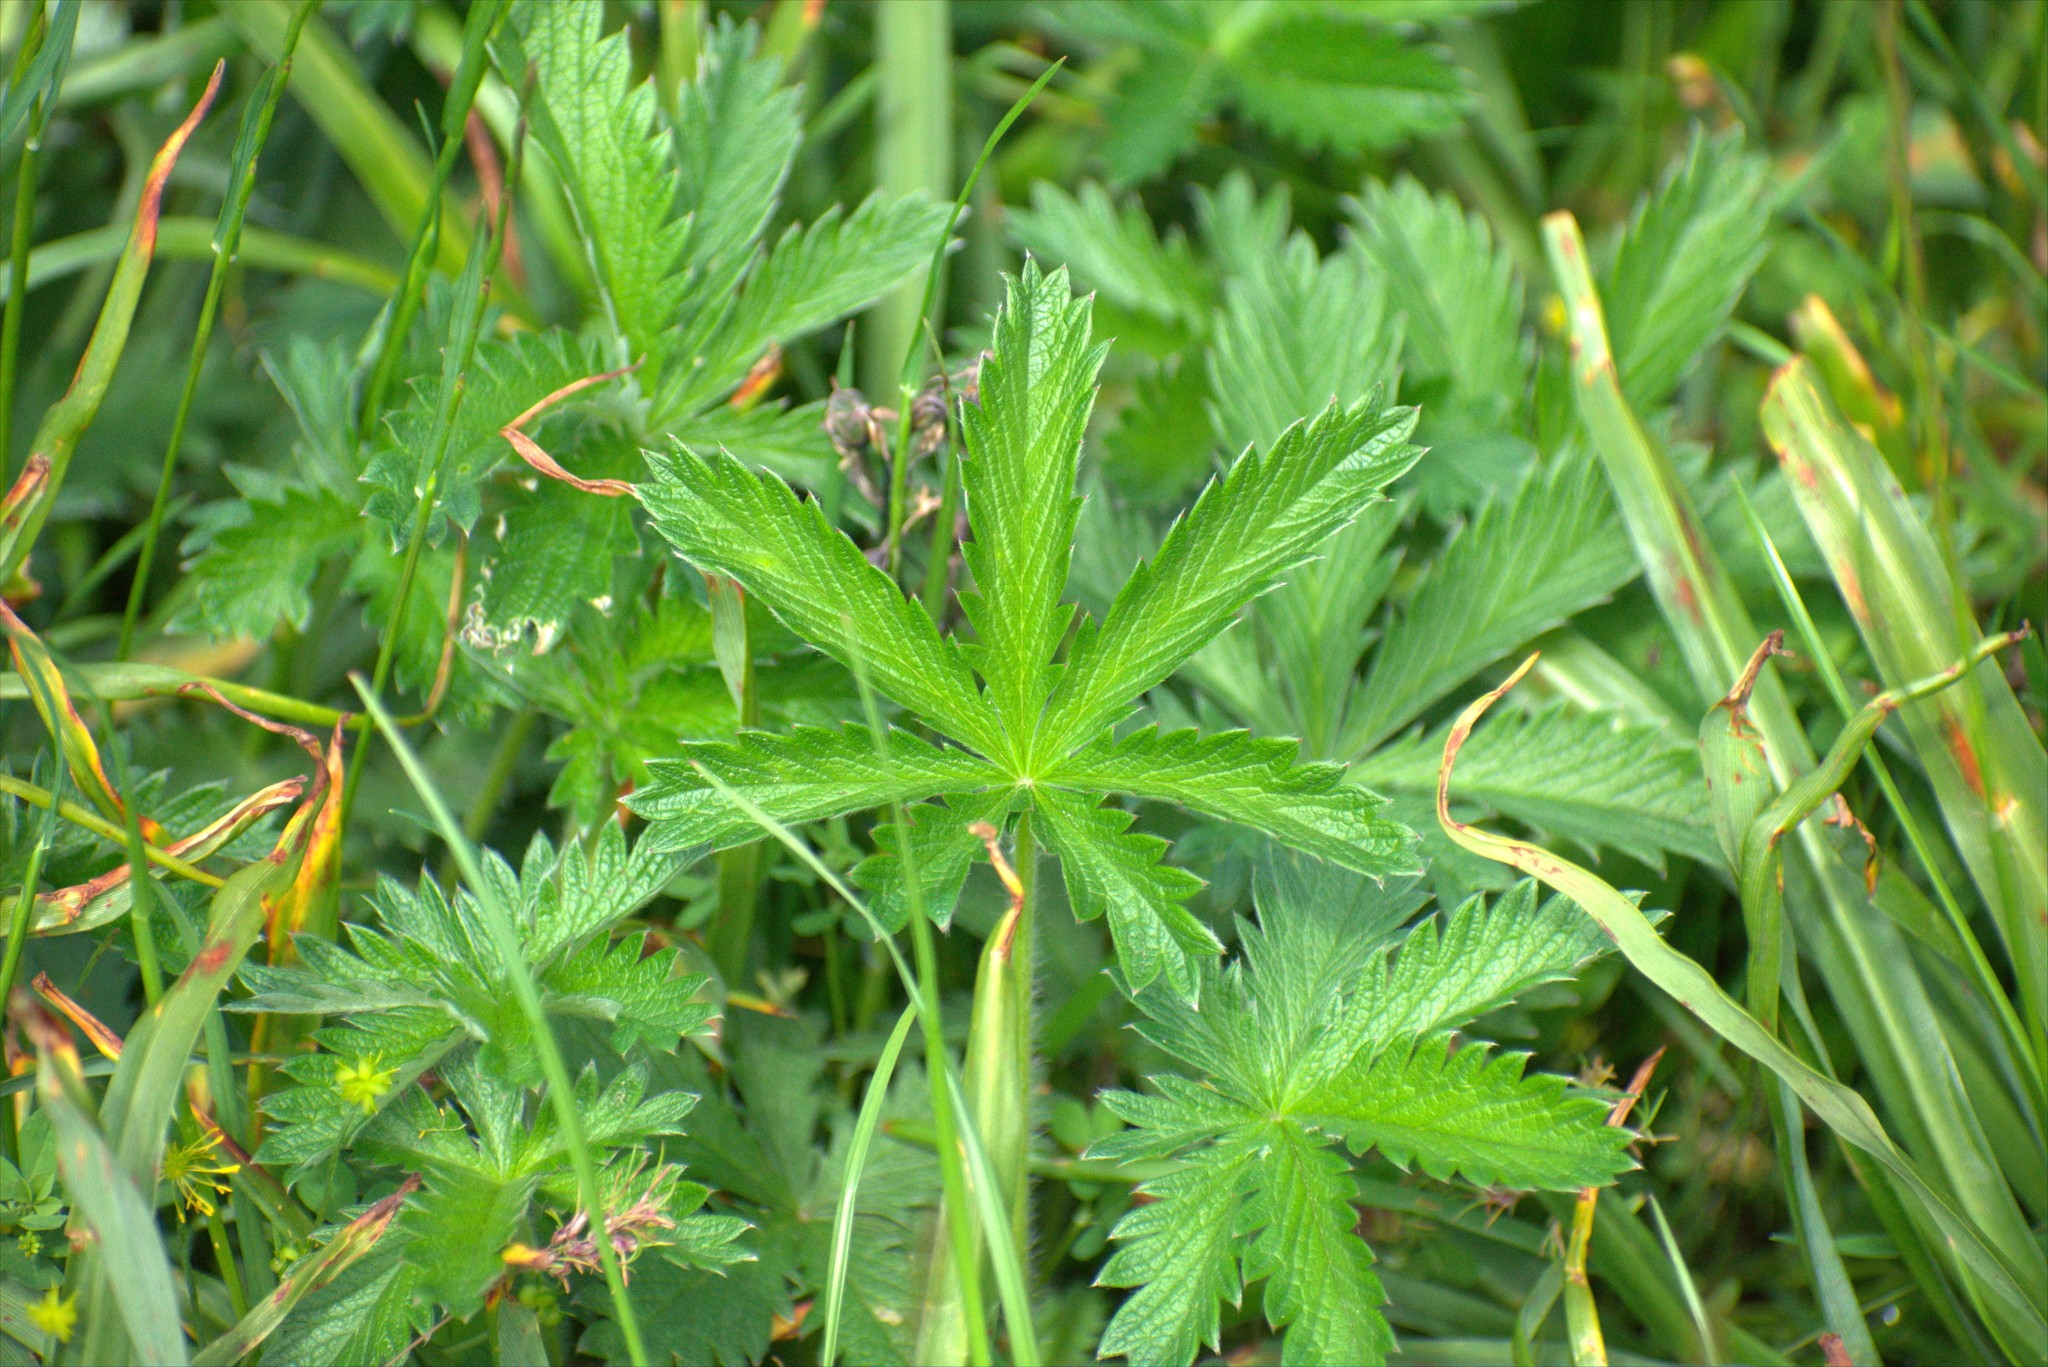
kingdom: Plantae
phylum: Tracheophyta
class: Magnoliopsida
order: Rosales
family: Rosaceae
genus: Potentilla
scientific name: Potentilla gracilis
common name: Graceful cinquefoil
